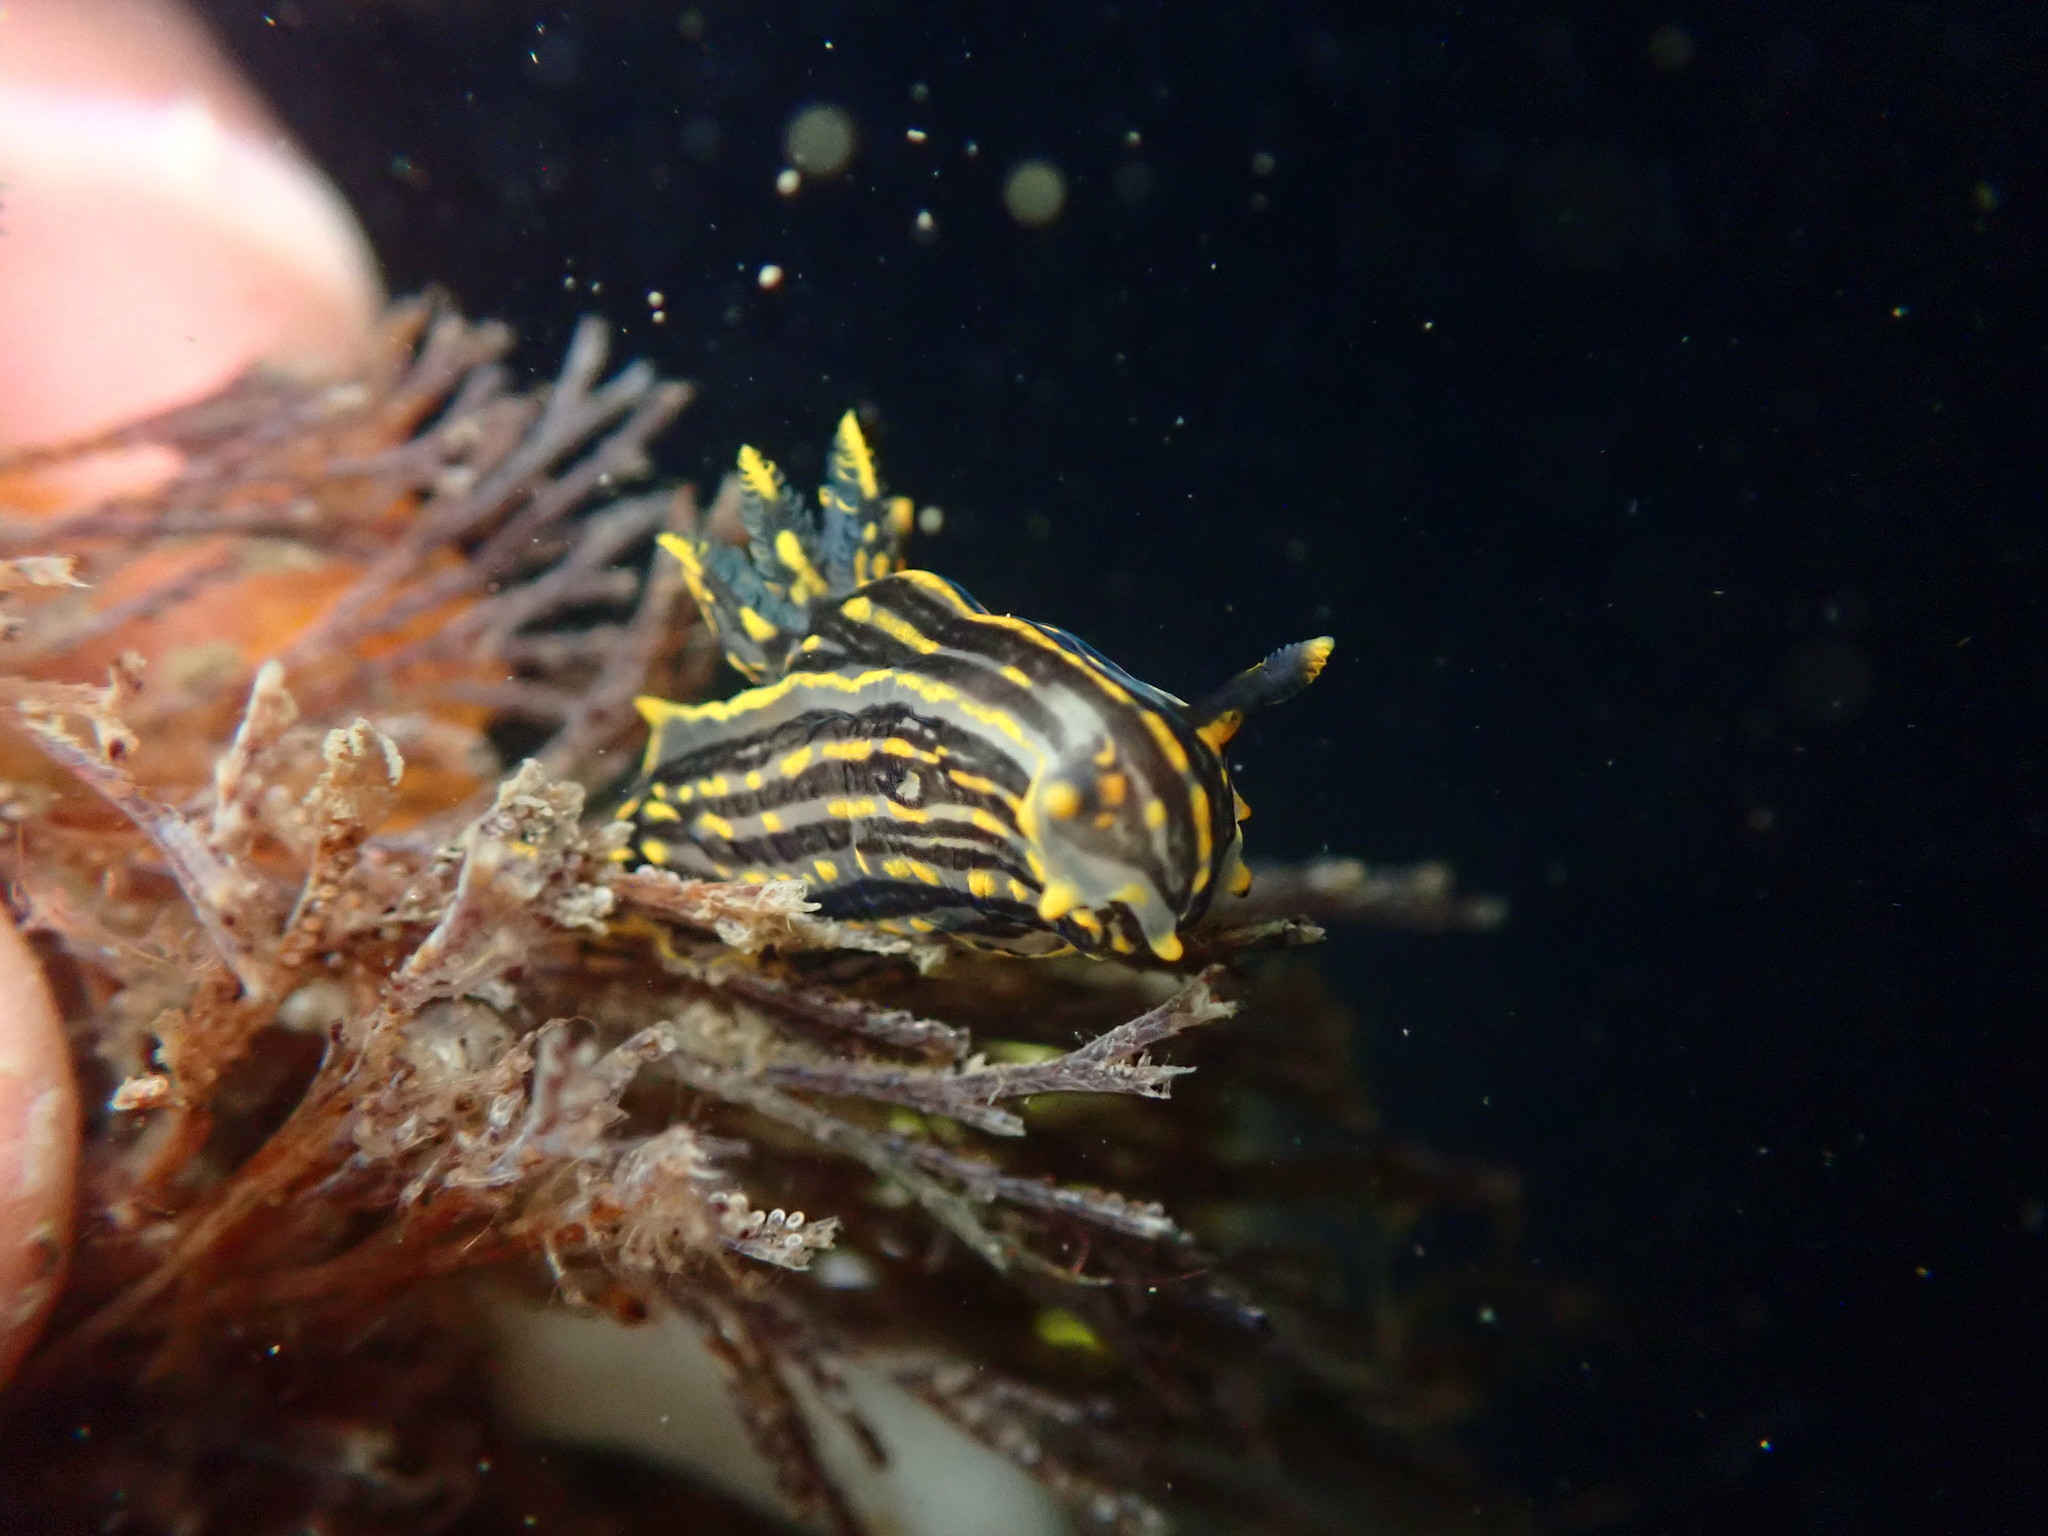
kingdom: Animalia
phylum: Mollusca
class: Gastropoda
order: Nudibranchia
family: Polyceridae
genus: Polycera
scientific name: Polycera atra
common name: Orange-spike polycera
